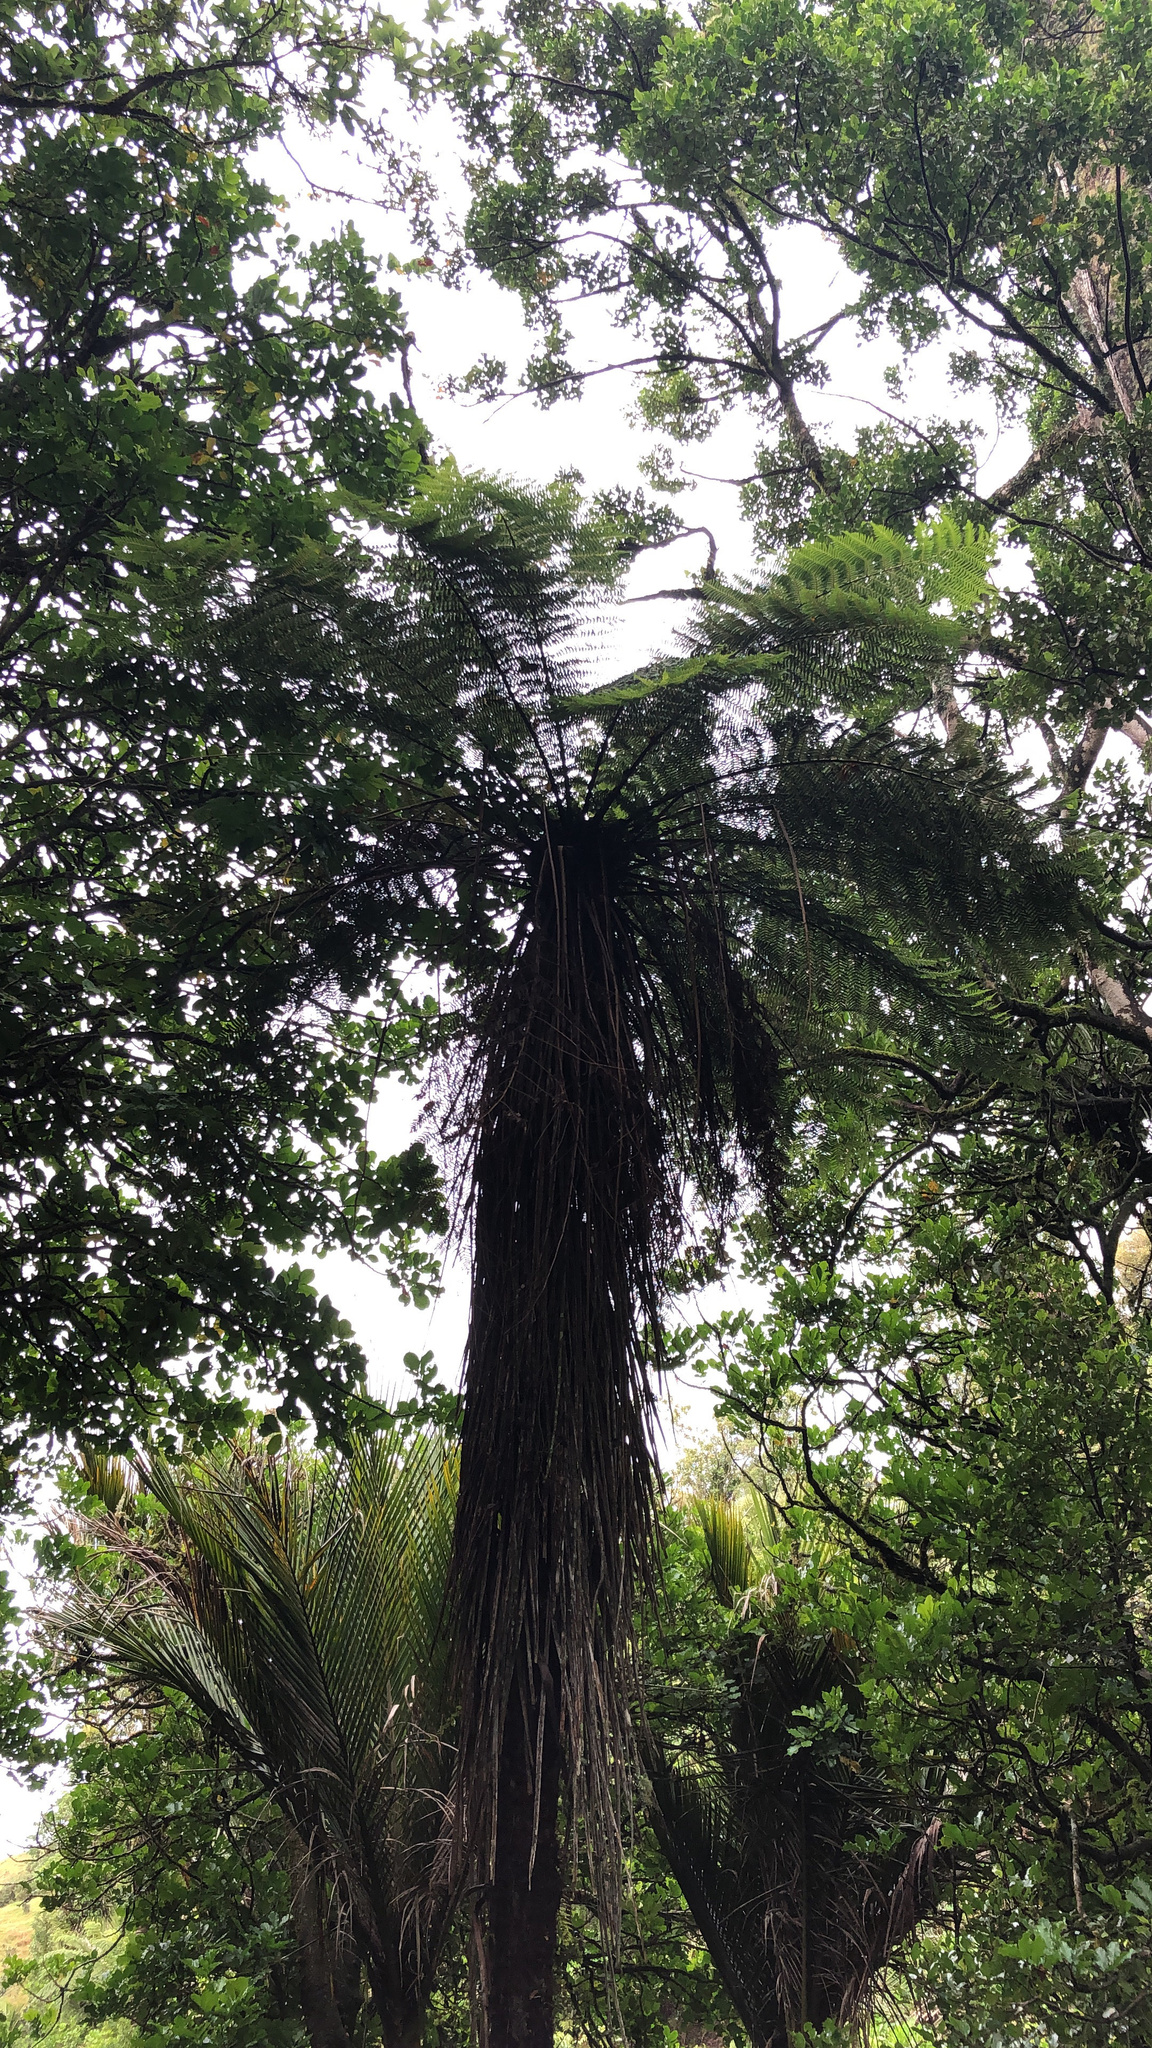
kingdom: Plantae
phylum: Tracheophyta
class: Polypodiopsida
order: Cyatheales
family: Cyatheaceae
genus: Alsophila
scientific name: Alsophila smithii
